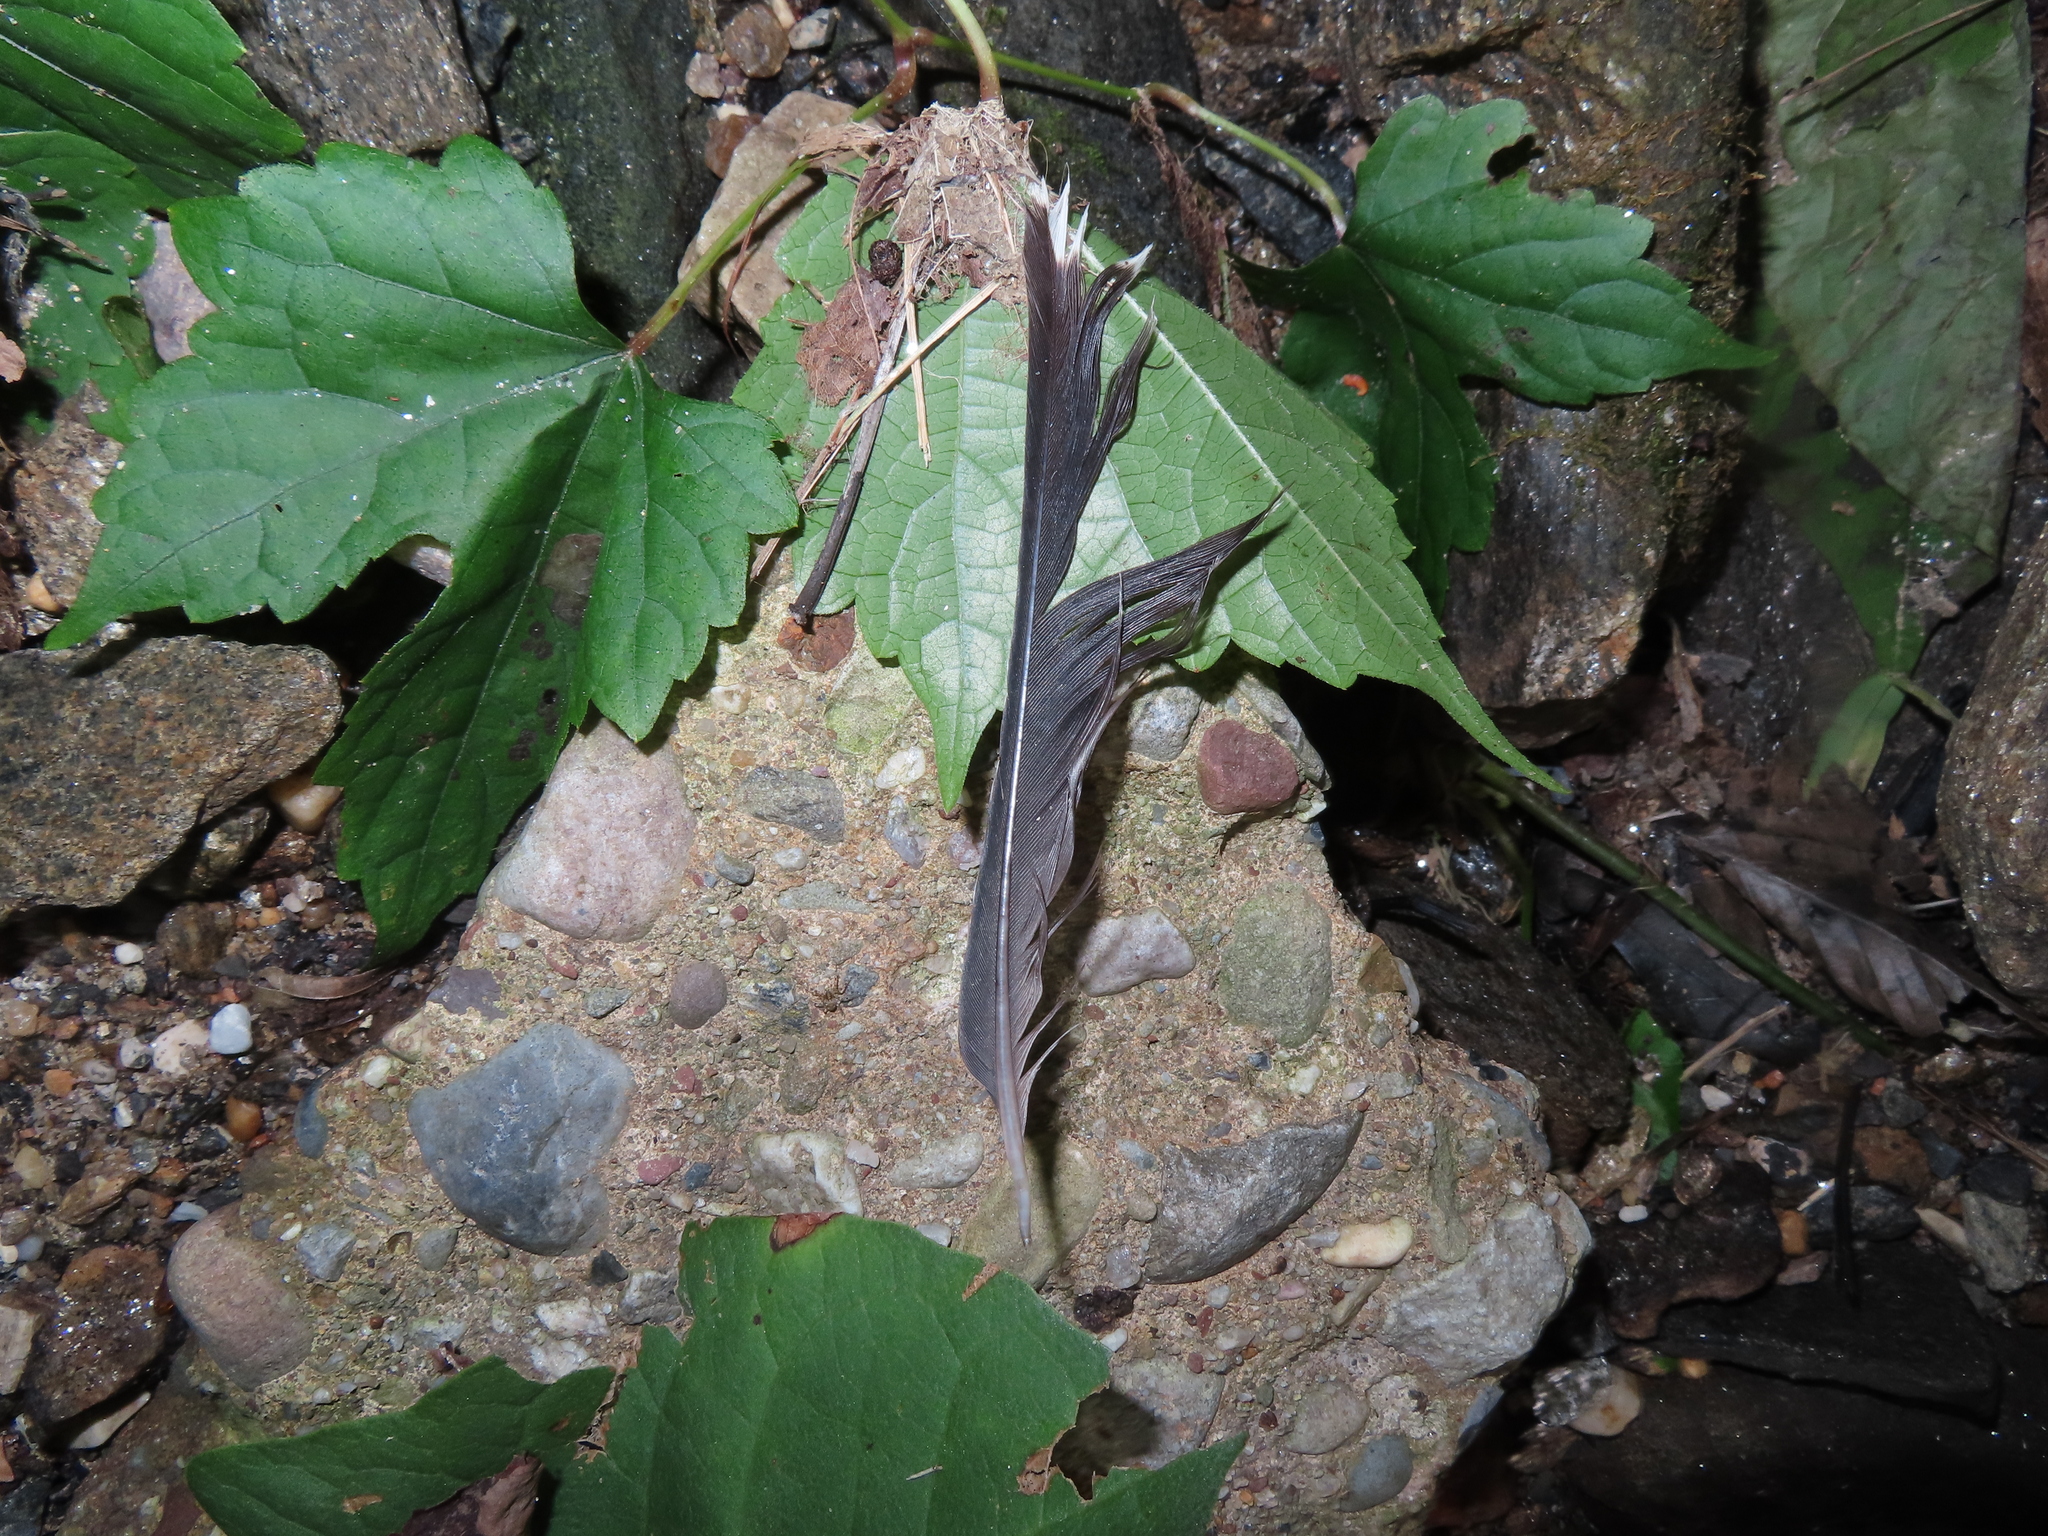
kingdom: Animalia
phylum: Chordata
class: Aves
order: Passeriformes
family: Turdidae
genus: Turdus
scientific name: Turdus migratorius
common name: American robin
